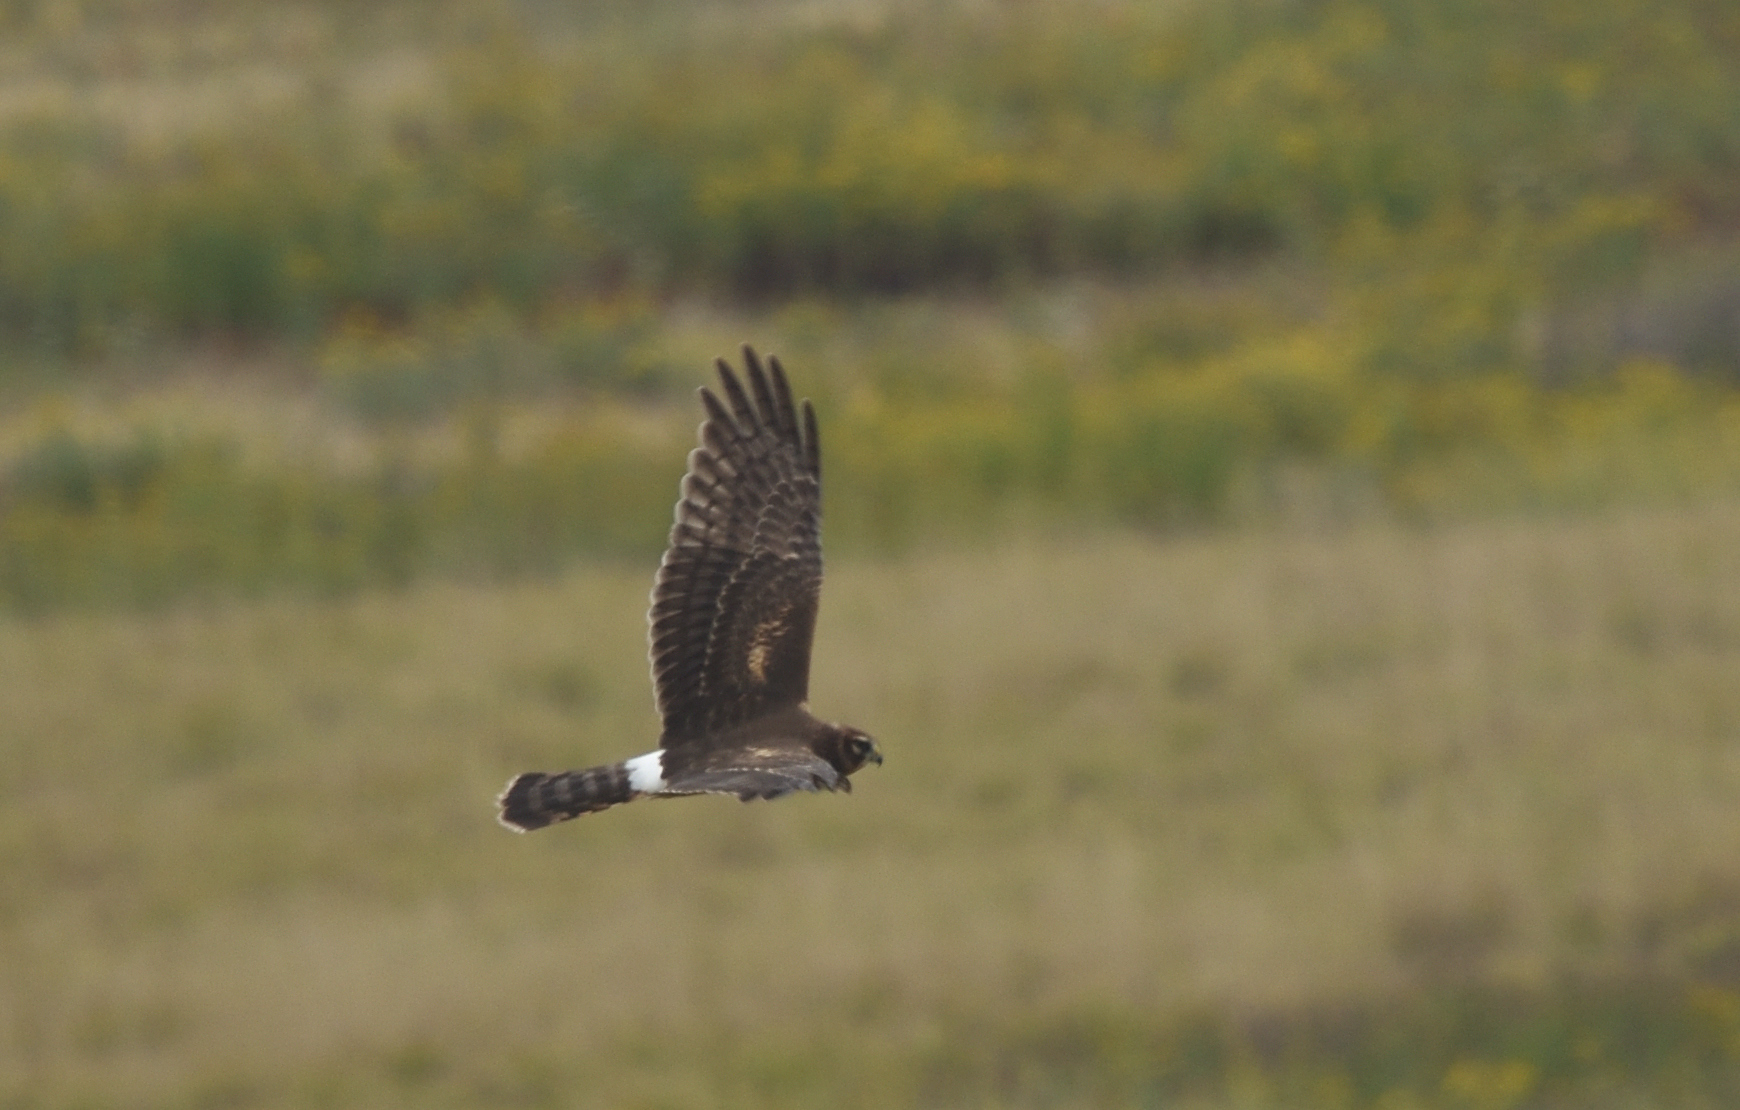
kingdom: Animalia
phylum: Chordata
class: Aves
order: Accipitriformes
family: Accipitridae
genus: Circus
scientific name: Circus cyaneus
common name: Hen harrier
